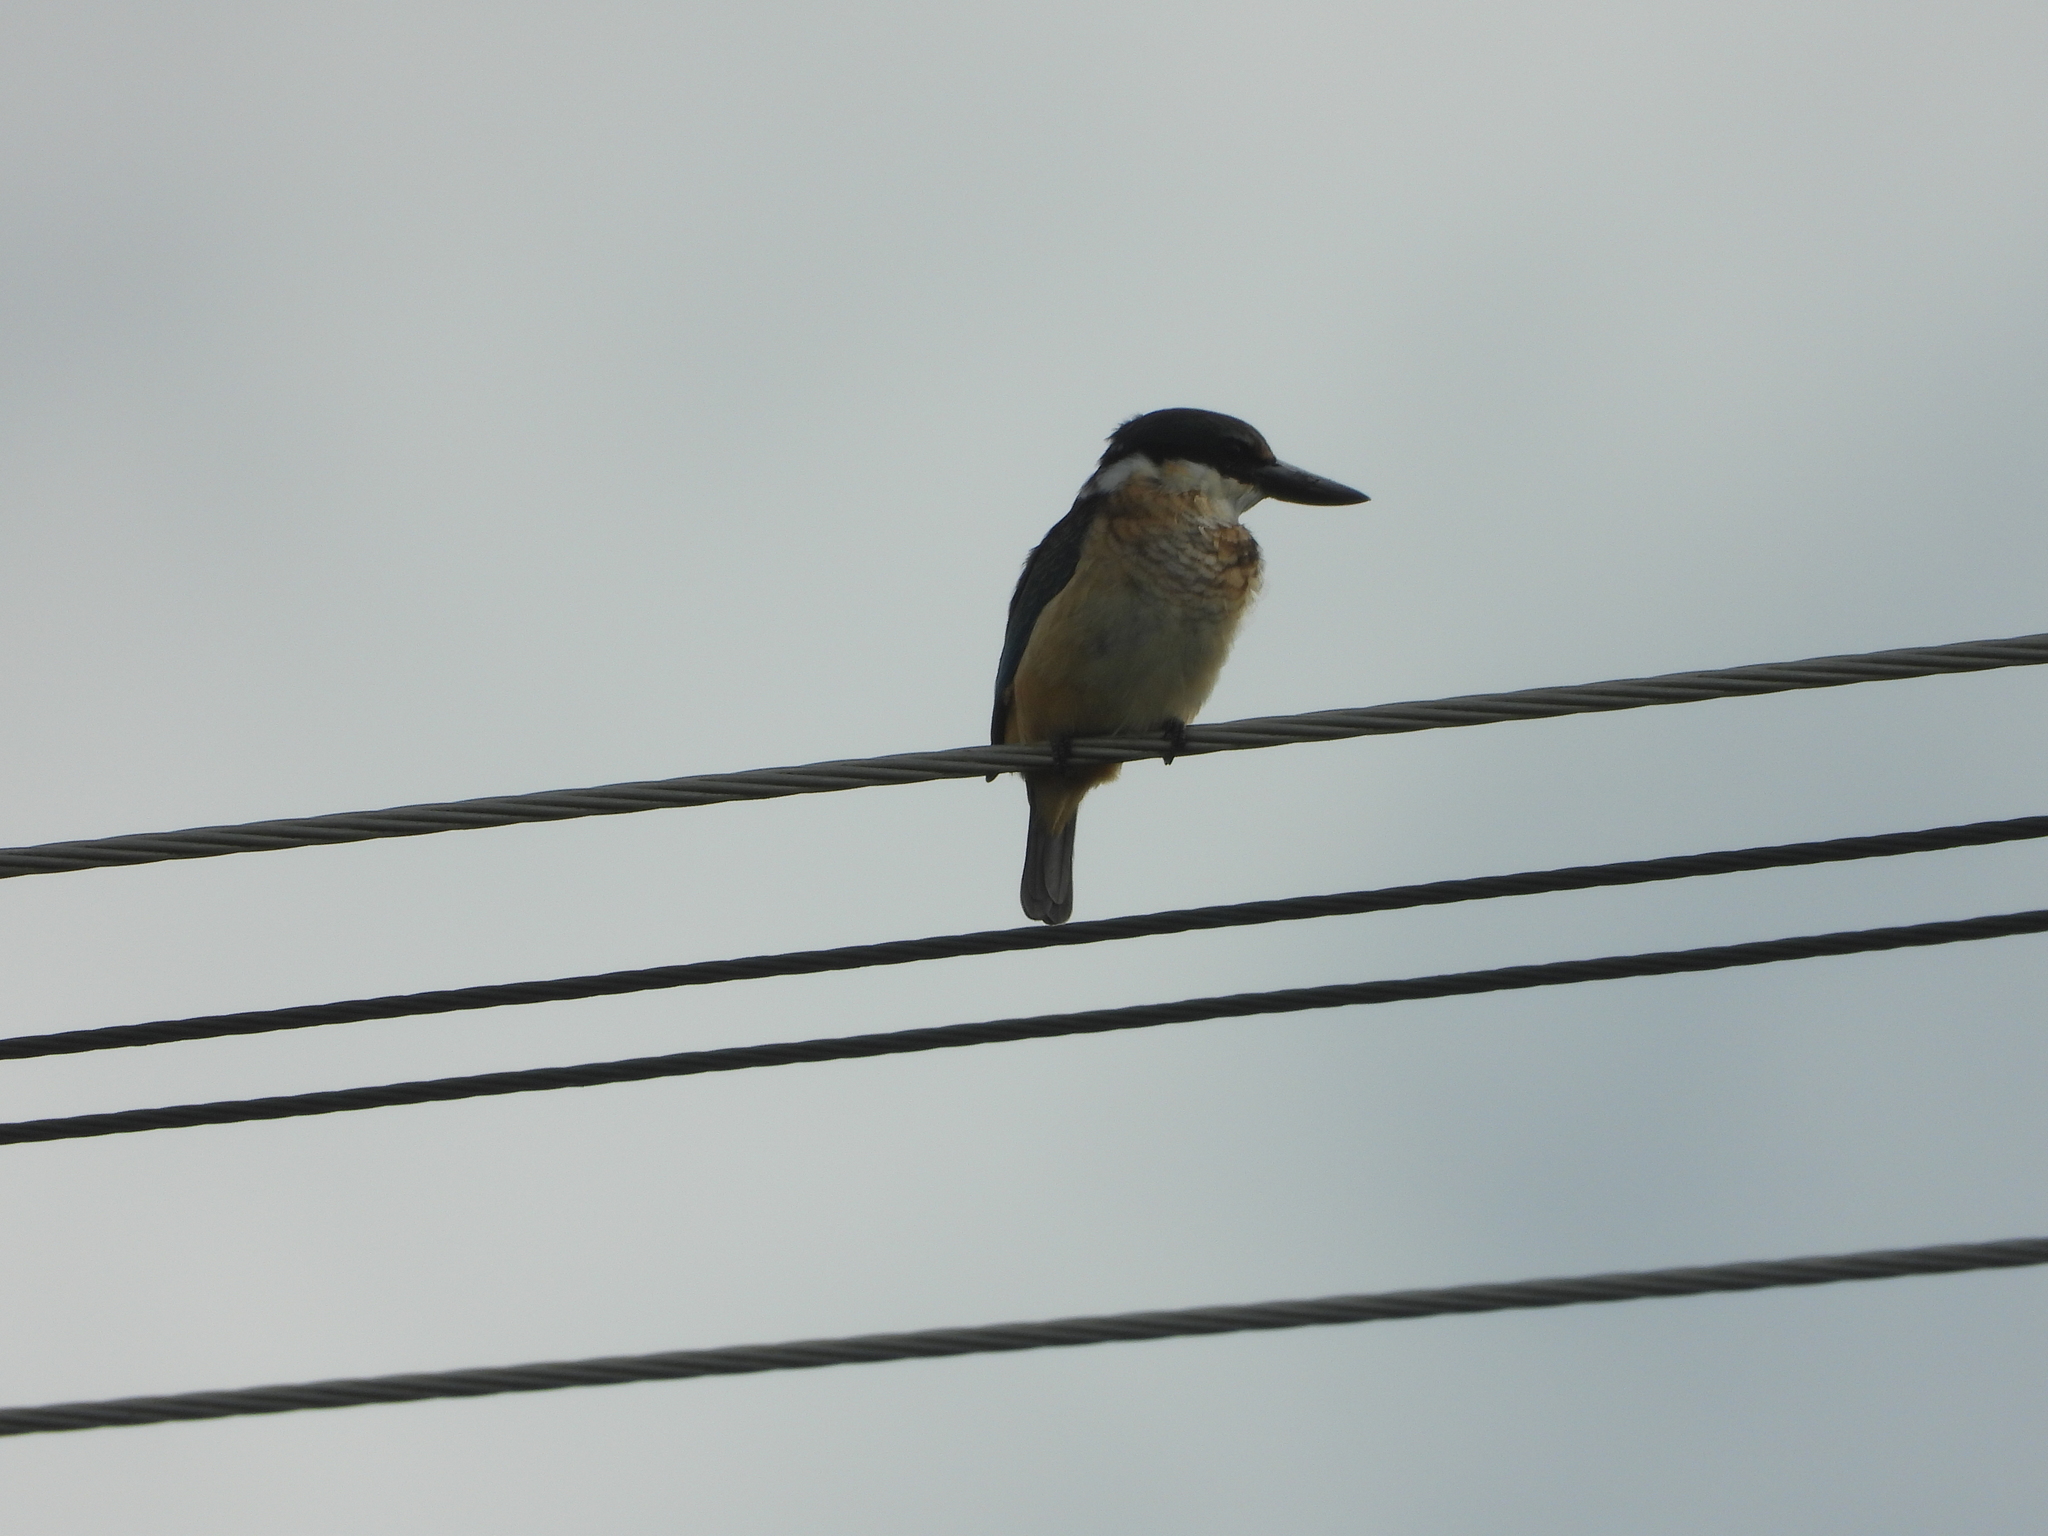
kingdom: Animalia
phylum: Chordata
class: Aves
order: Coraciiformes
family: Alcedinidae
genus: Todiramphus
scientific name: Todiramphus sanctus
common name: Sacred kingfisher
